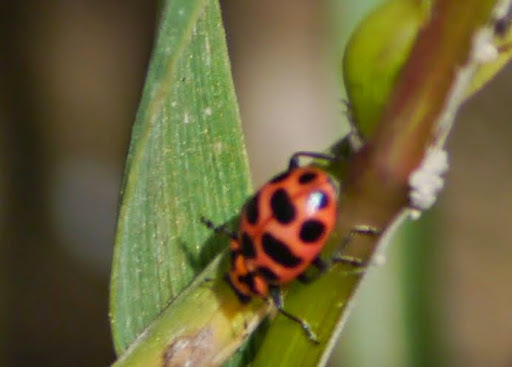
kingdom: Animalia
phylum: Arthropoda
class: Insecta
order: Coleoptera
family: Coccinellidae
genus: Coleomegilla
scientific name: Coleomegilla maculata
